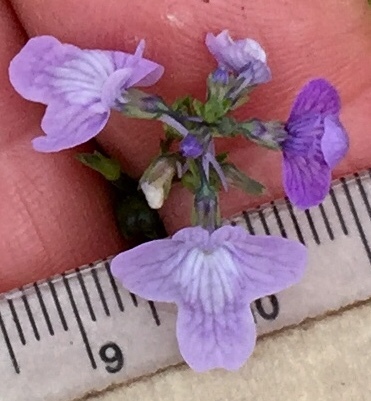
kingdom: Plantae
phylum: Tracheophyta
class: Magnoliopsida
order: Lamiales
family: Plantaginaceae
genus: Nuttallanthus
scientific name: Nuttallanthus texanus
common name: Texas toadflax
